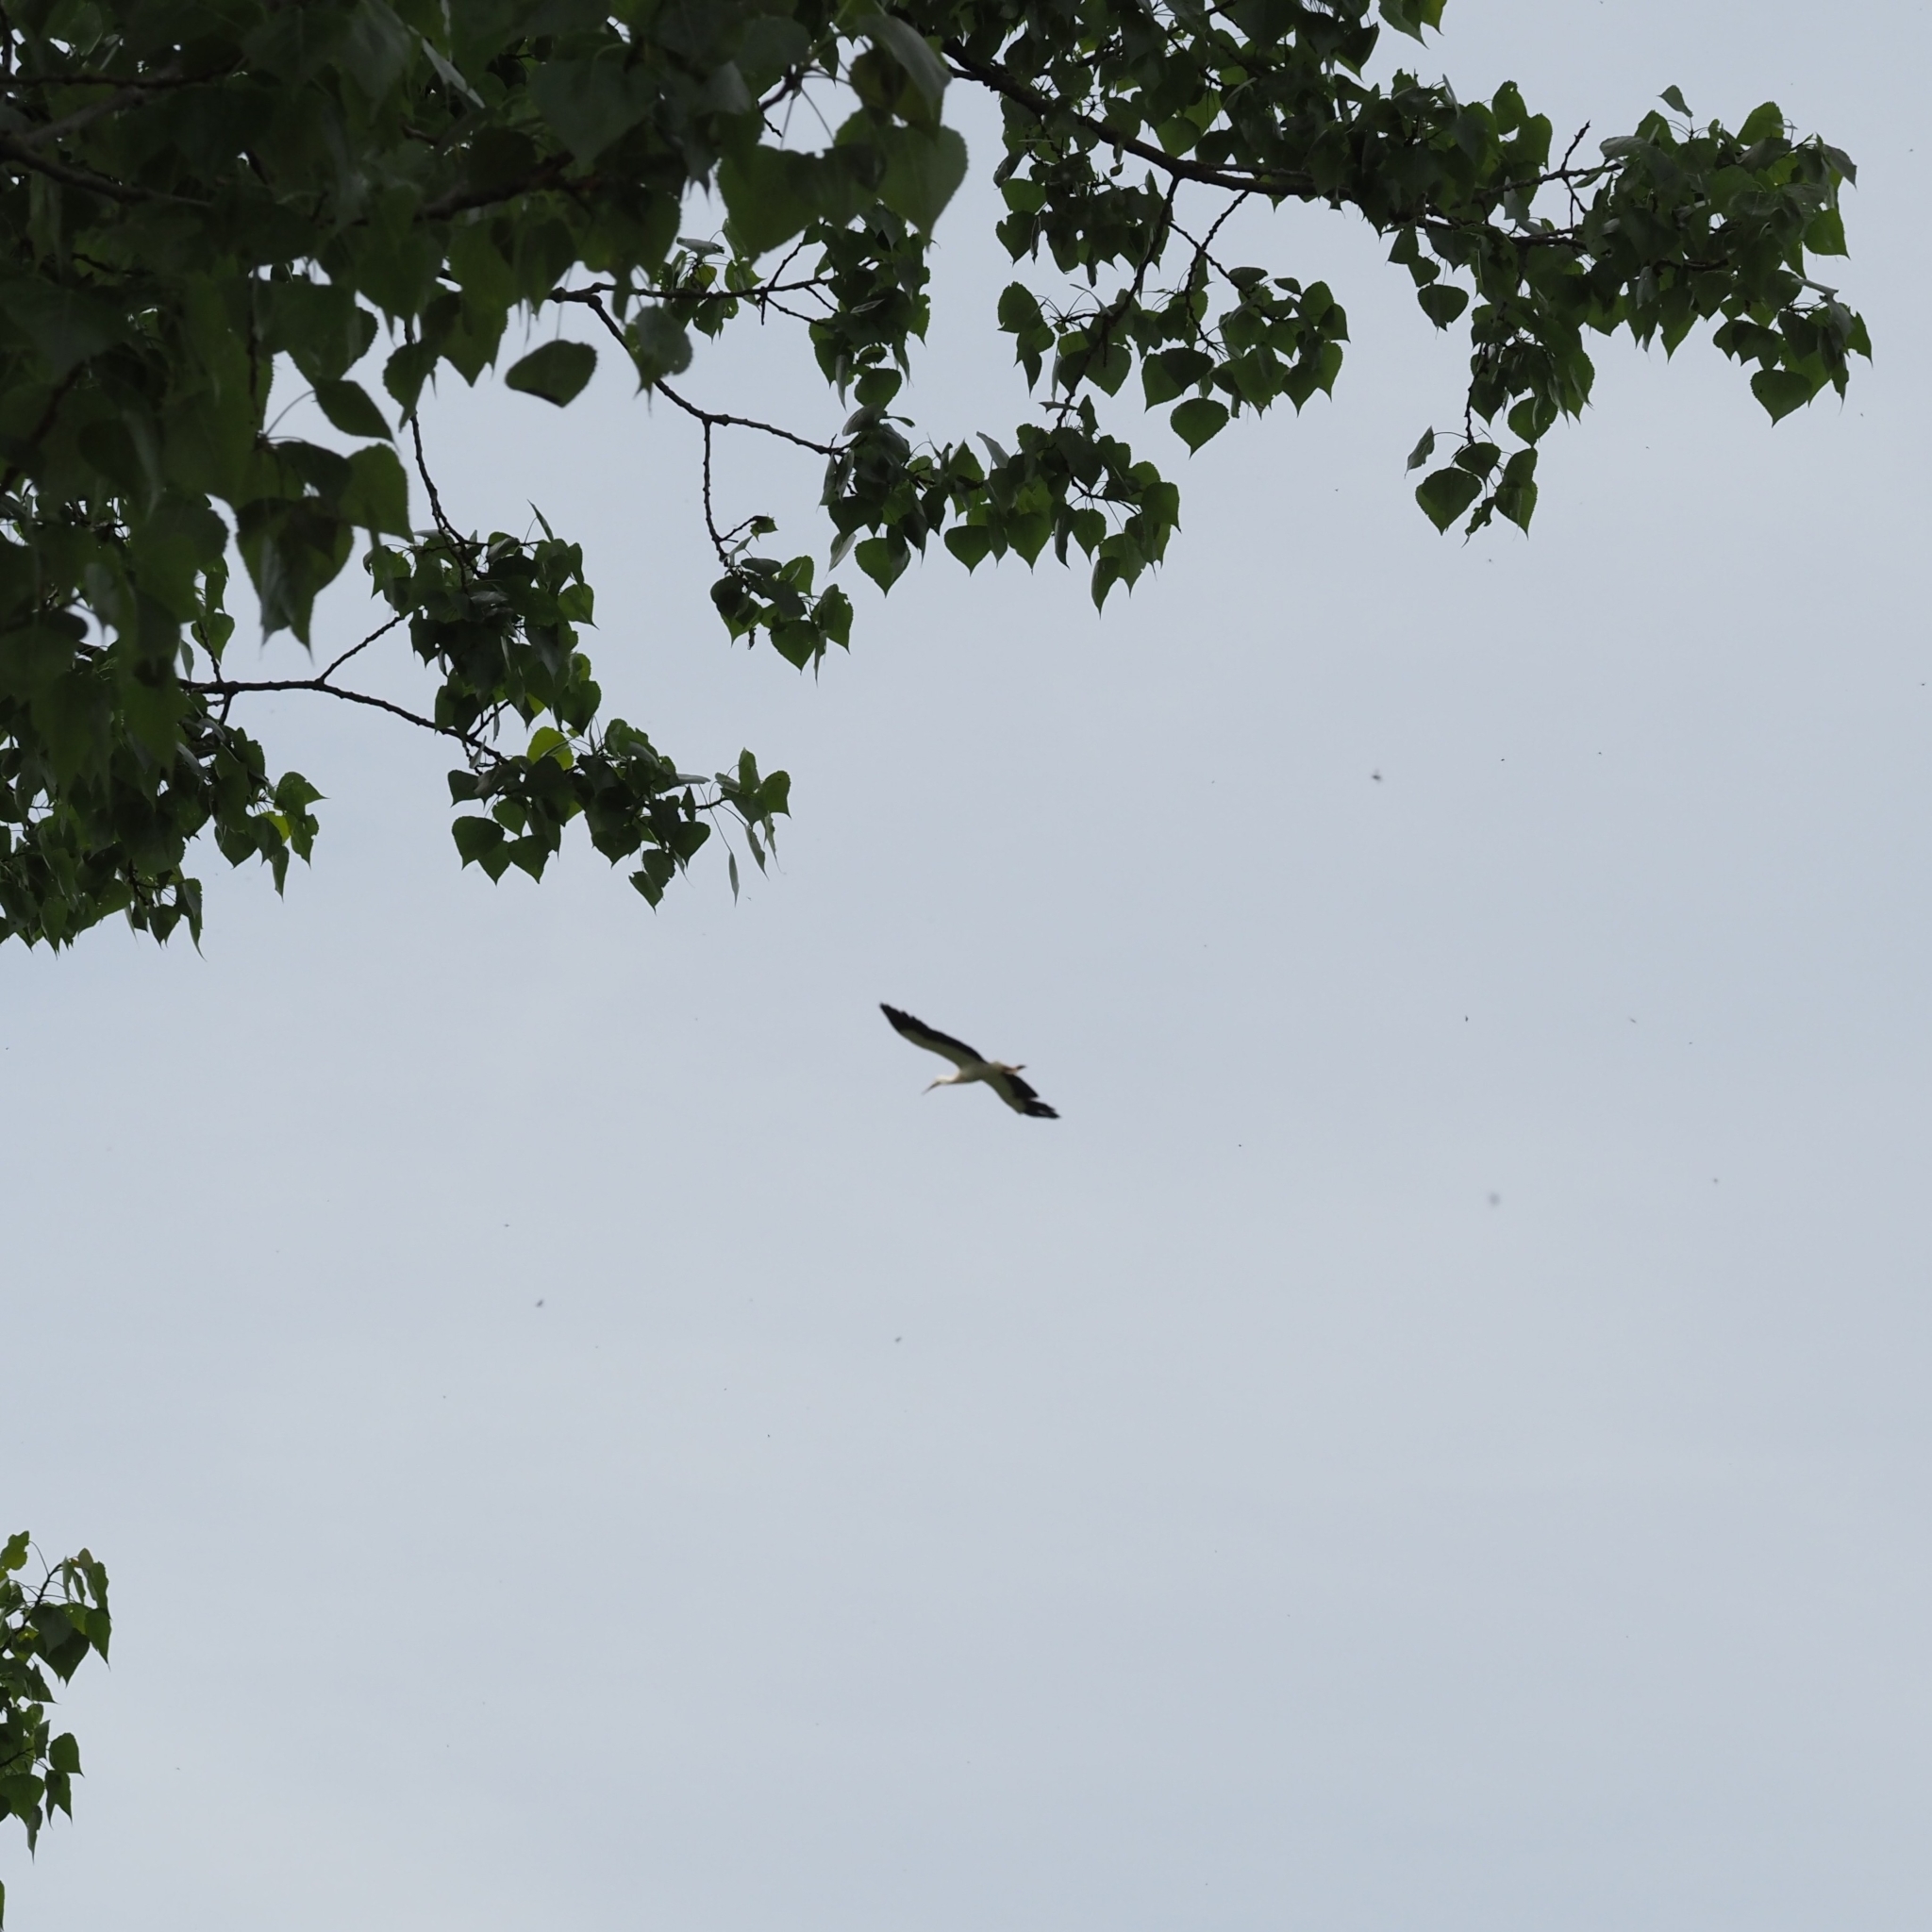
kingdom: Animalia
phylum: Chordata
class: Aves
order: Ciconiiformes
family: Ciconiidae
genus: Ciconia
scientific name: Ciconia ciconia
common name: White stork
